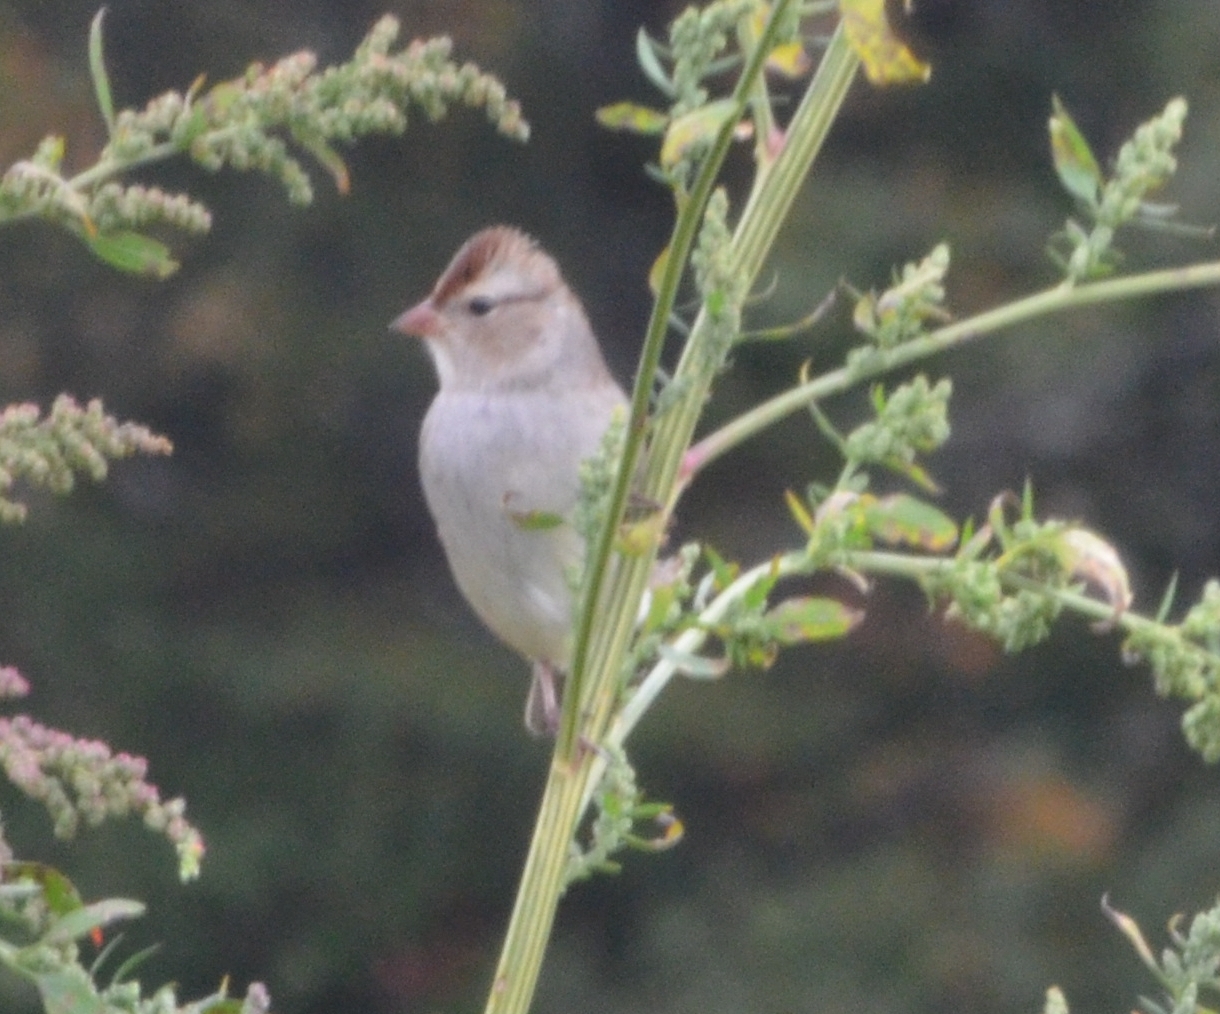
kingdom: Animalia
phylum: Chordata
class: Aves
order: Passeriformes
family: Passerellidae
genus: Zonotrichia
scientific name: Zonotrichia leucophrys
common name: White-crowned sparrow
